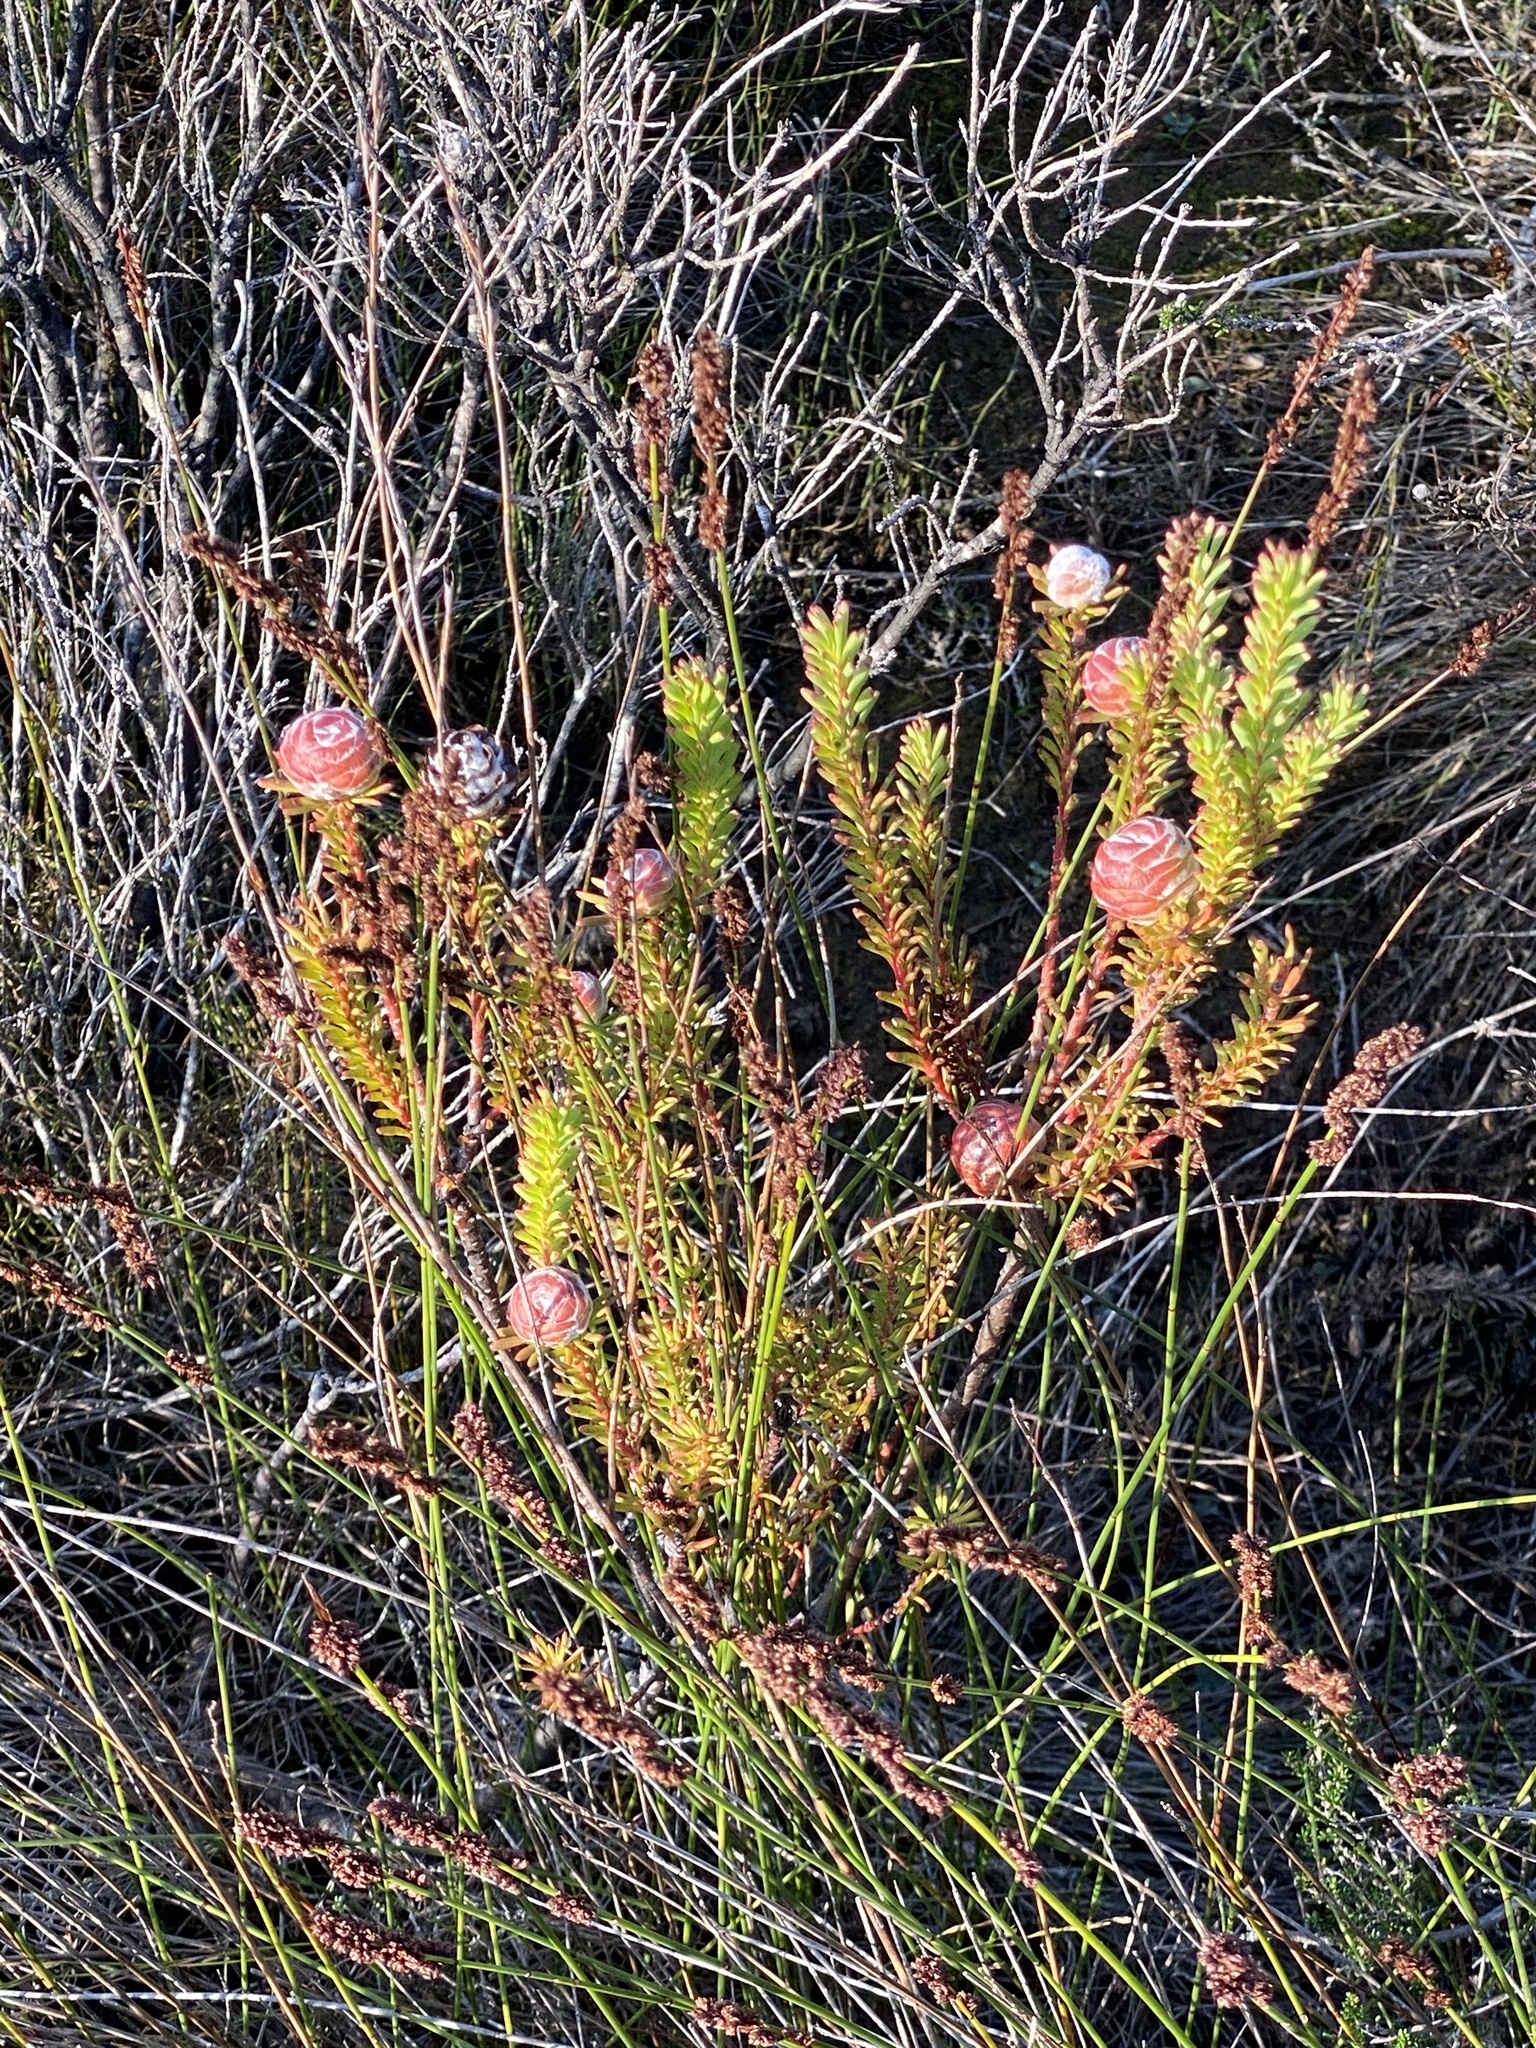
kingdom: Plantae
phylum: Tracheophyta
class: Magnoliopsida
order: Proteales
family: Proteaceae
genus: Leucadendron
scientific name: Leucadendron linifolium
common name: Line-leaf conebush
